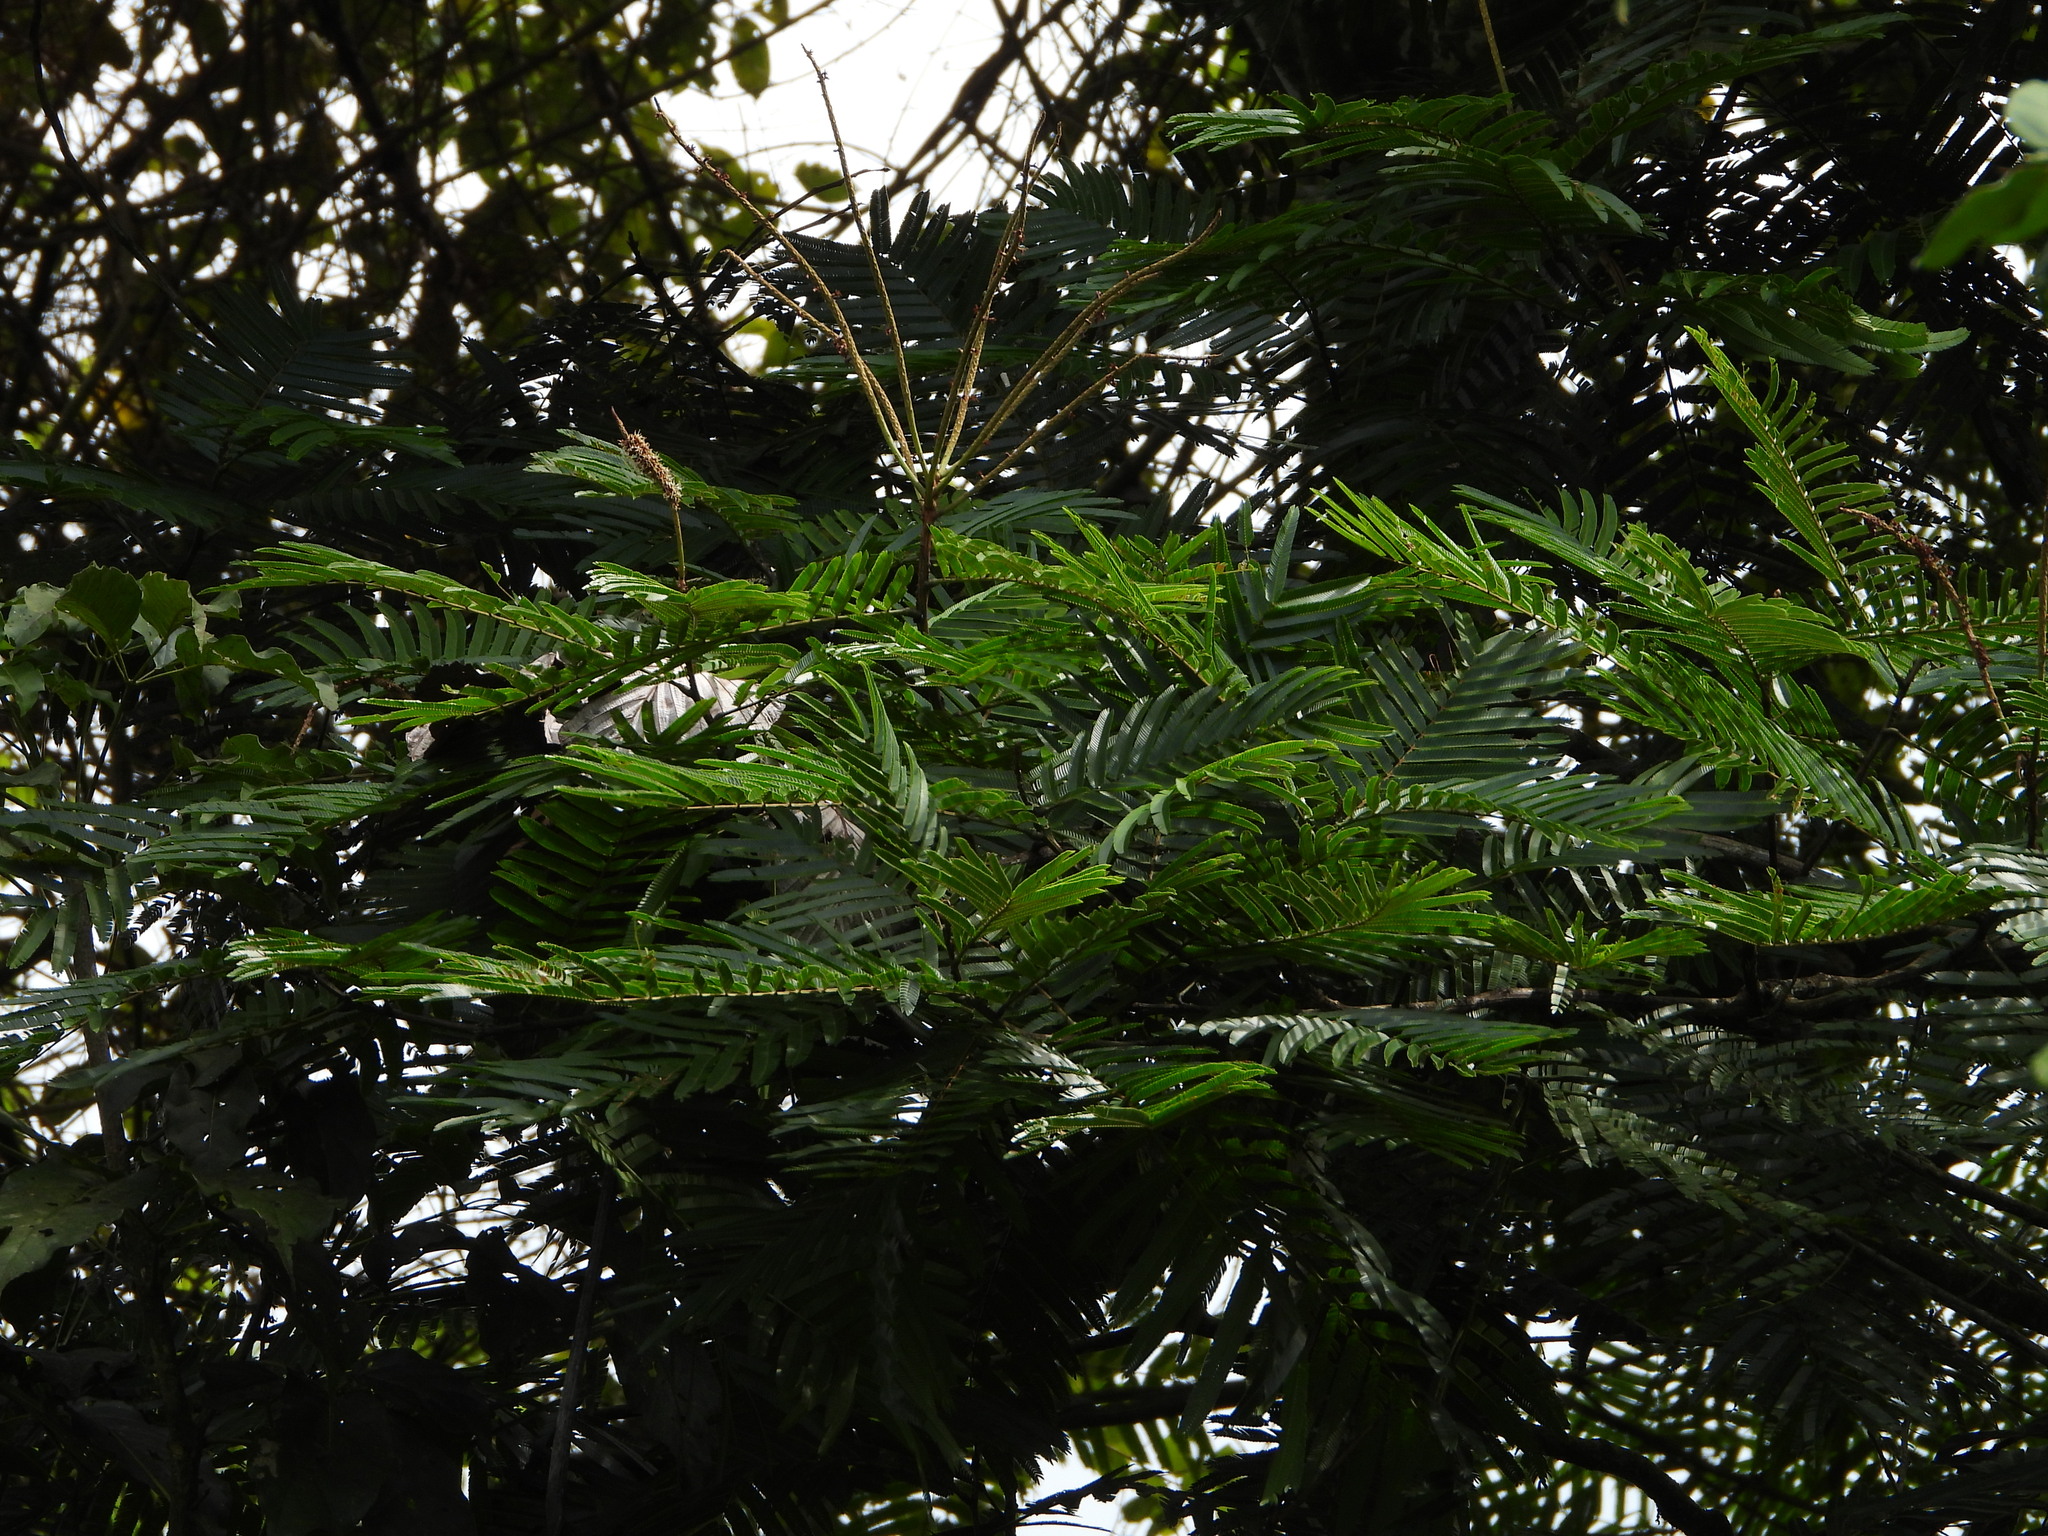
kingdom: Plantae
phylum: Tracheophyta
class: Magnoliopsida
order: Fabales
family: Fabaceae
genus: Pentaclethra
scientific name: Pentaclethra macroloba
